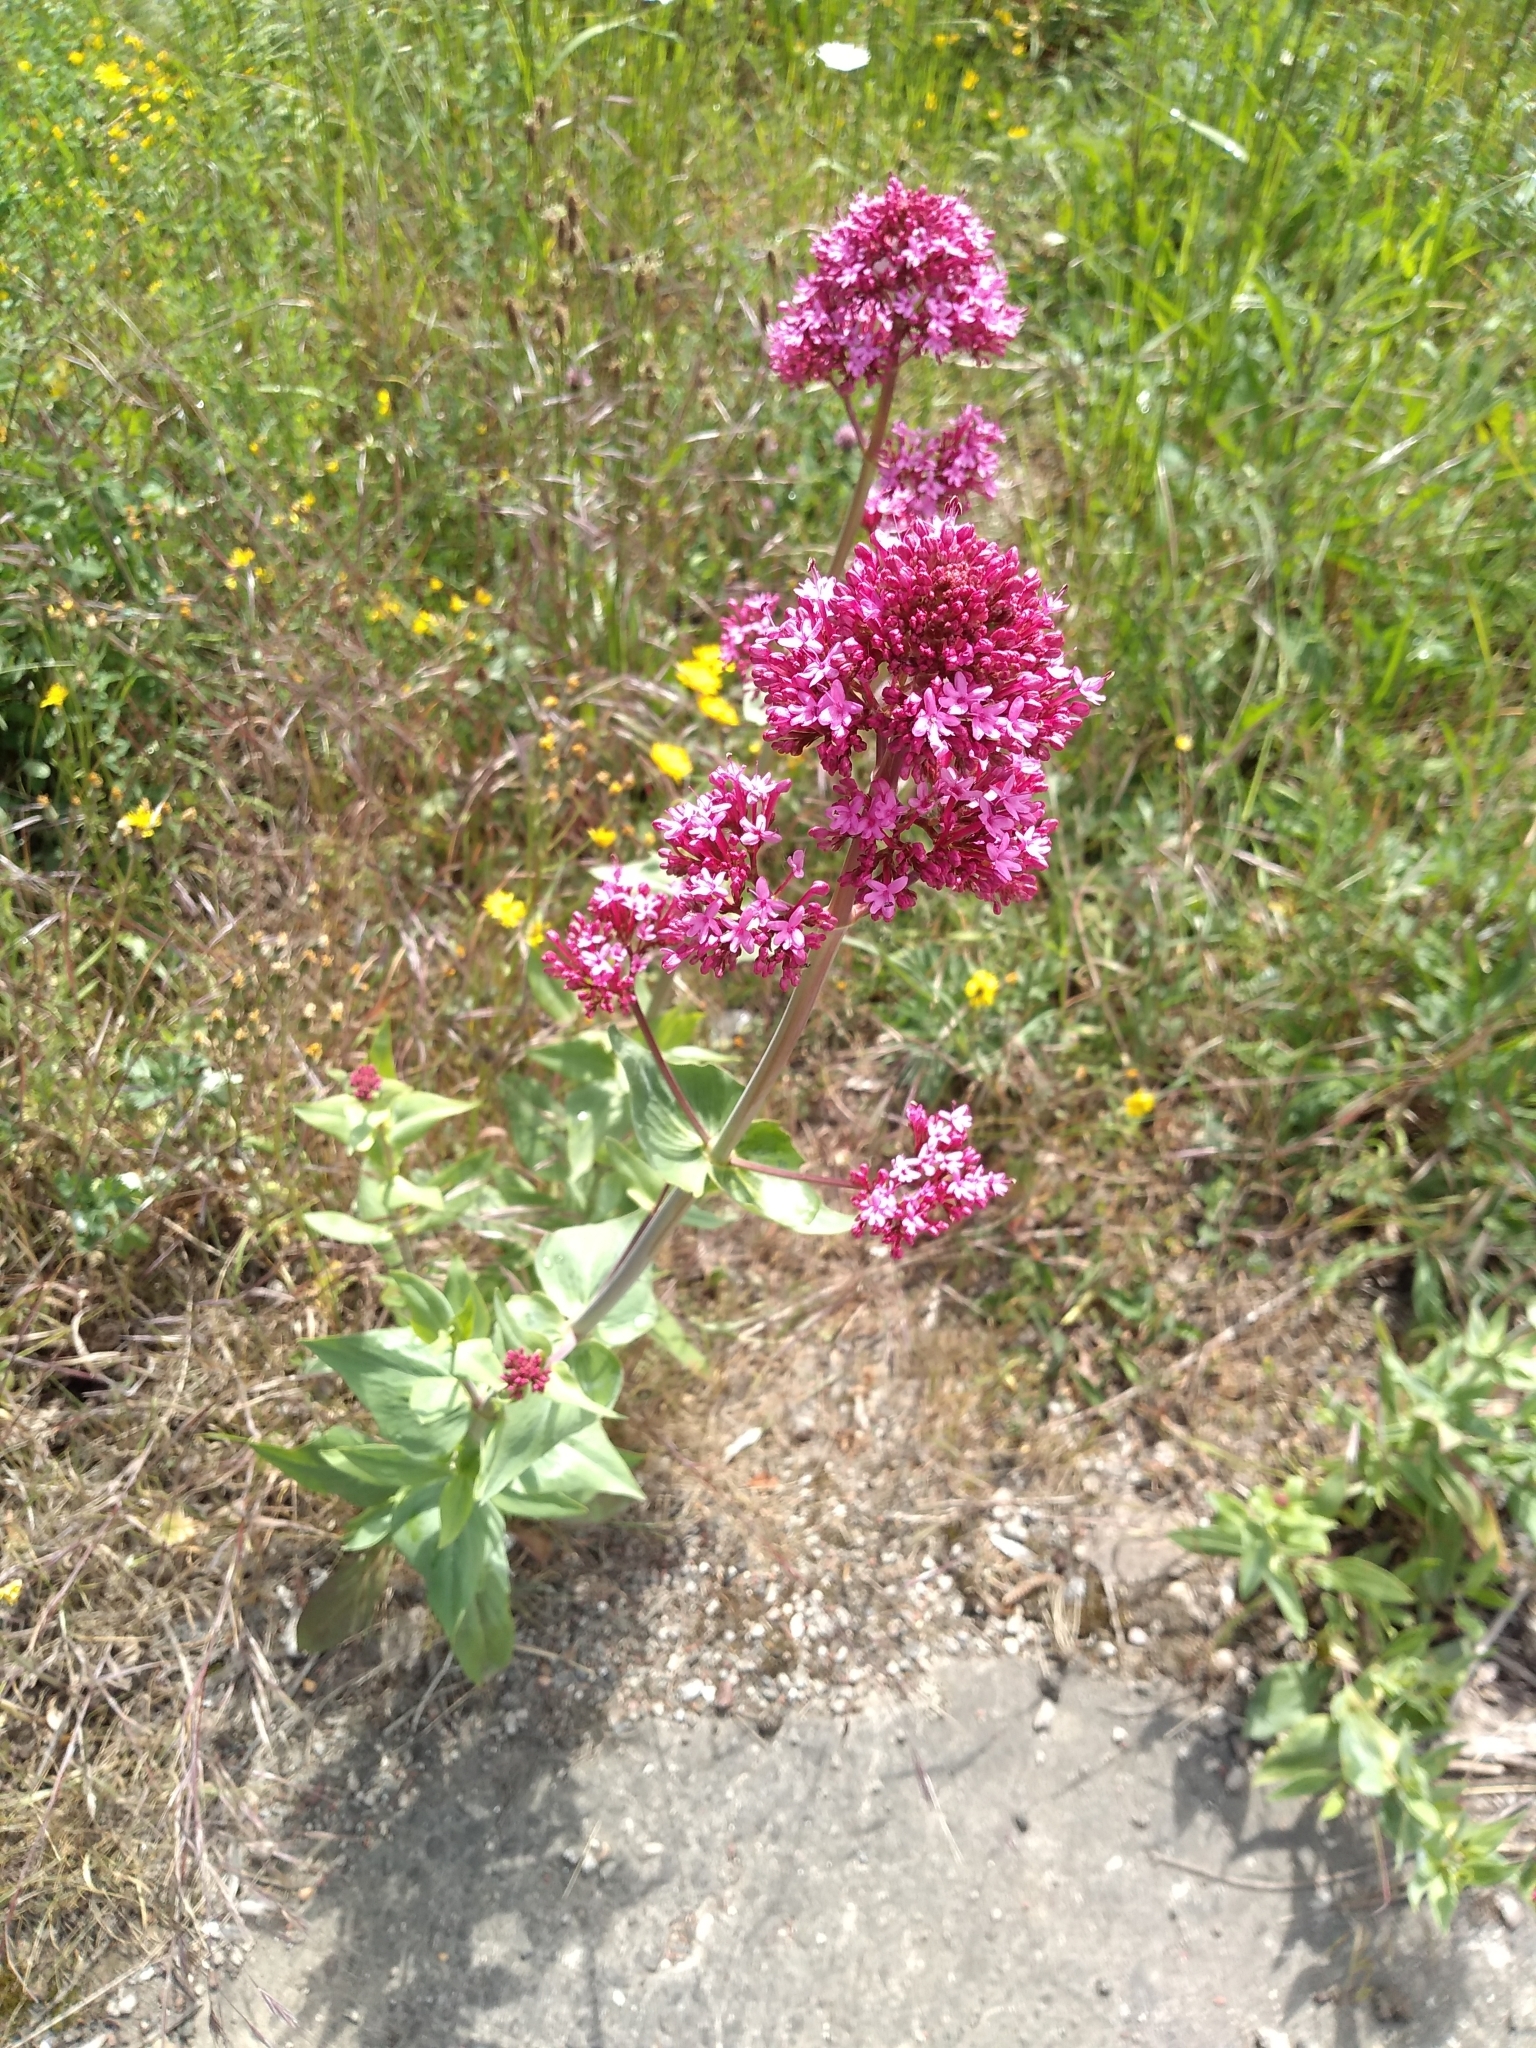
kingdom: Plantae
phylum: Tracheophyta
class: Magnoliopsida
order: Dipsacales
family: Caprifoliaceae
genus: Centranthus
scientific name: Centranthus ruber
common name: Red valerian
